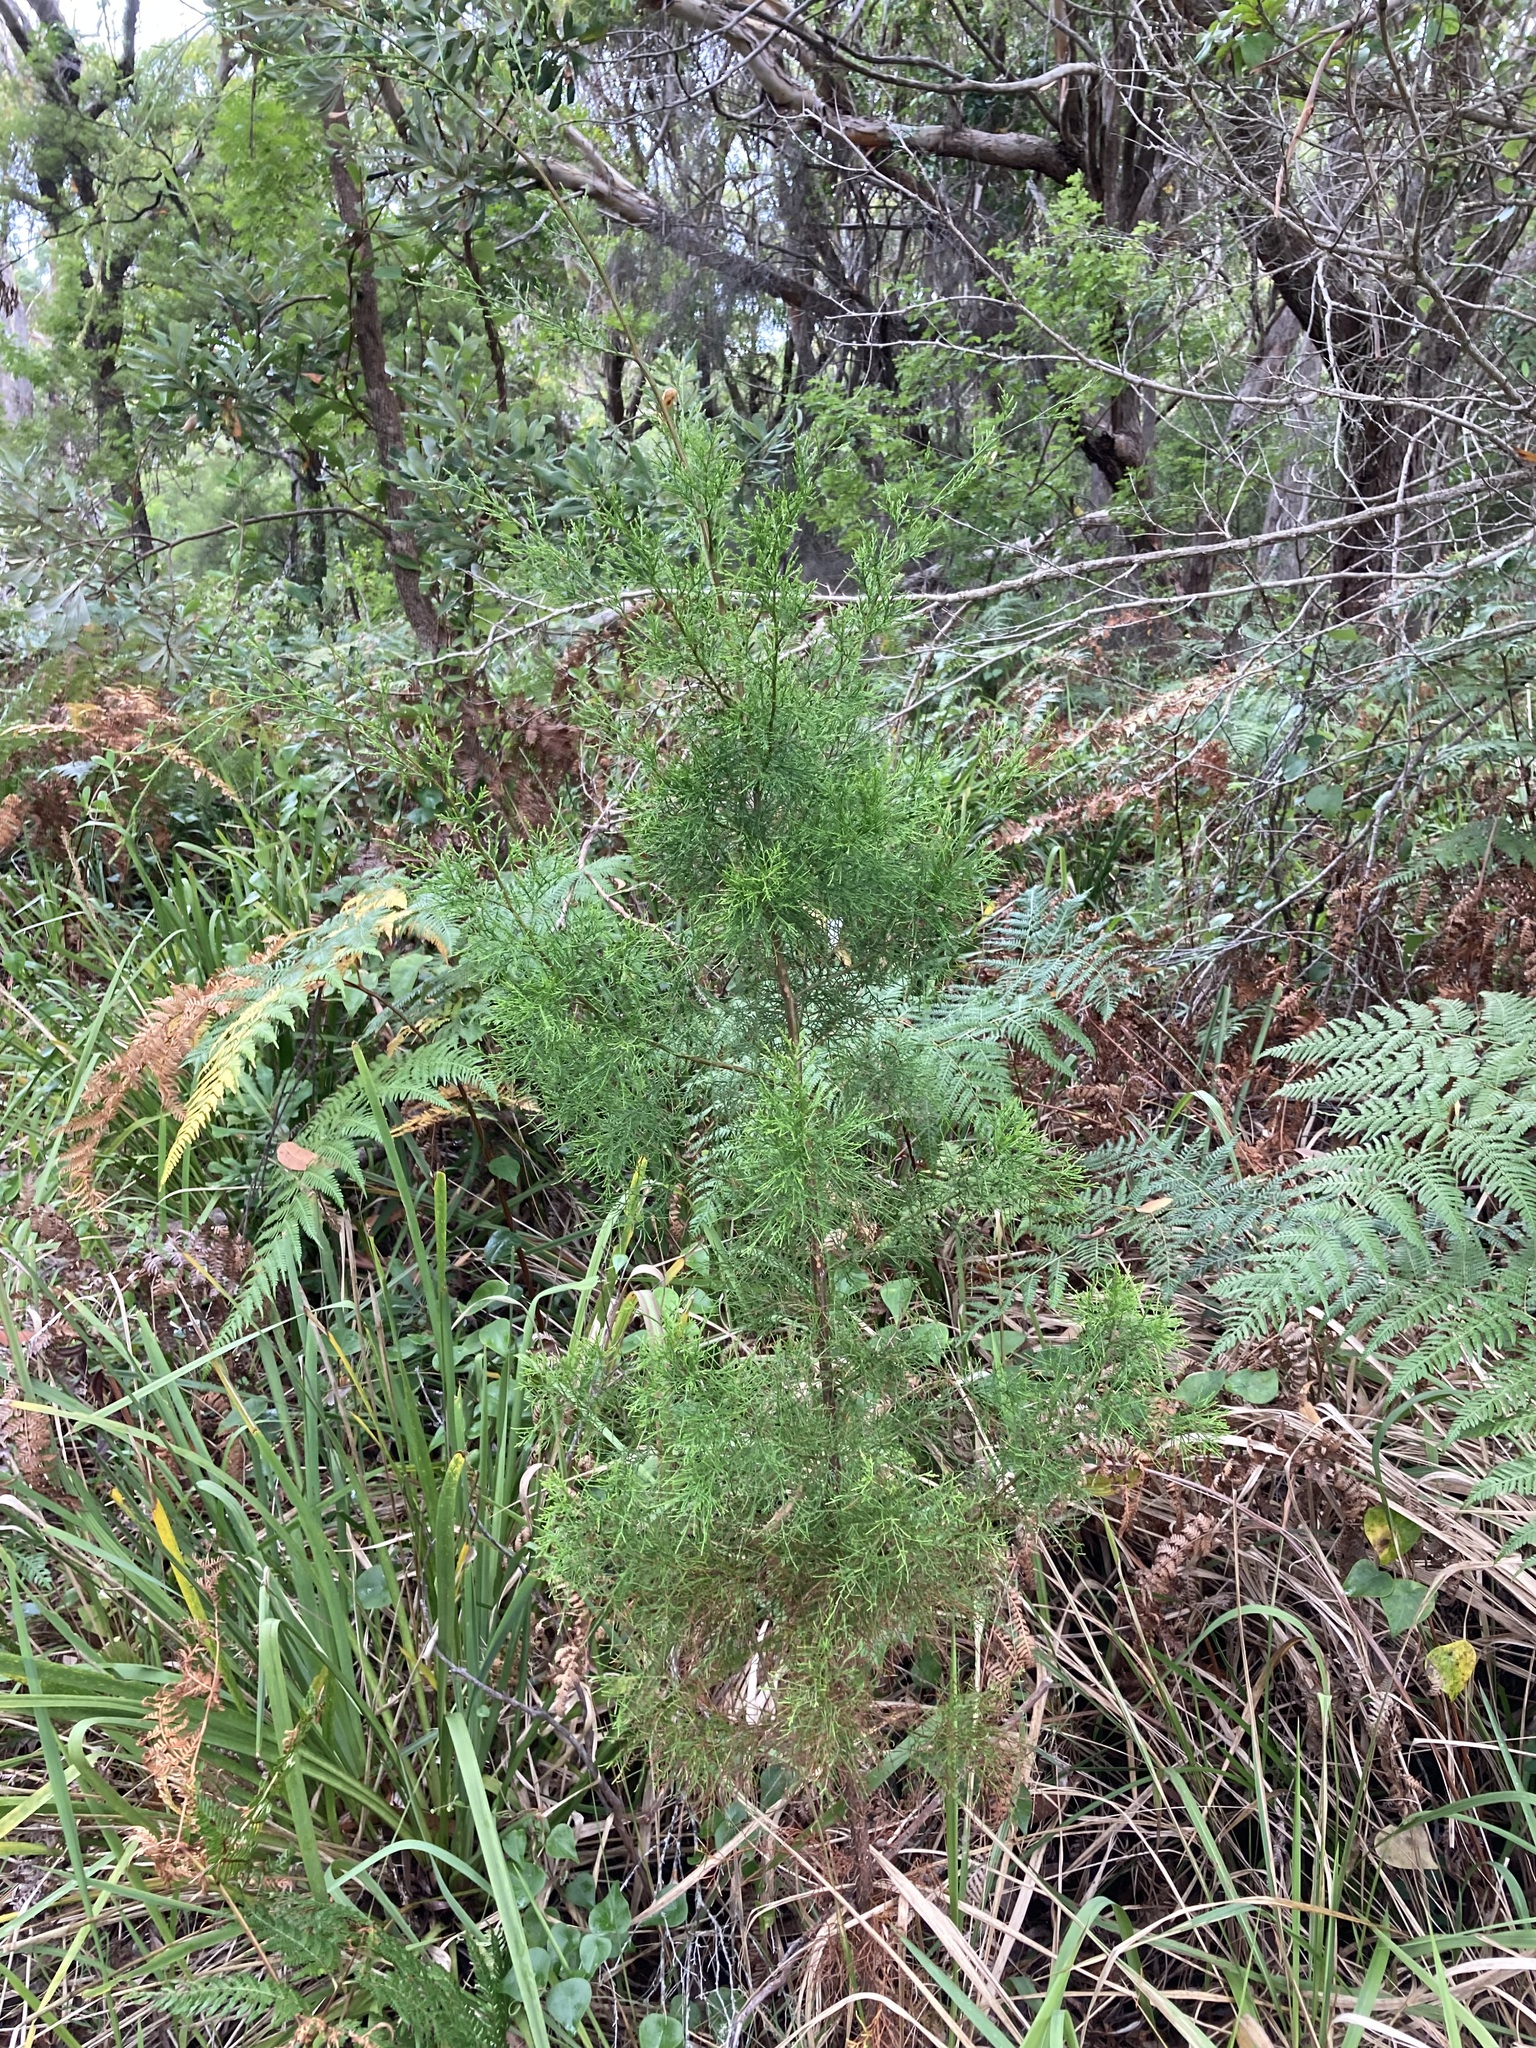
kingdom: Plantae
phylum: Tracheophyta
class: Pinopsida
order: Pinales
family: Cupressaceae
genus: Callitris
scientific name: Callitris rhomboidea
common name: Illawara mountain pine
